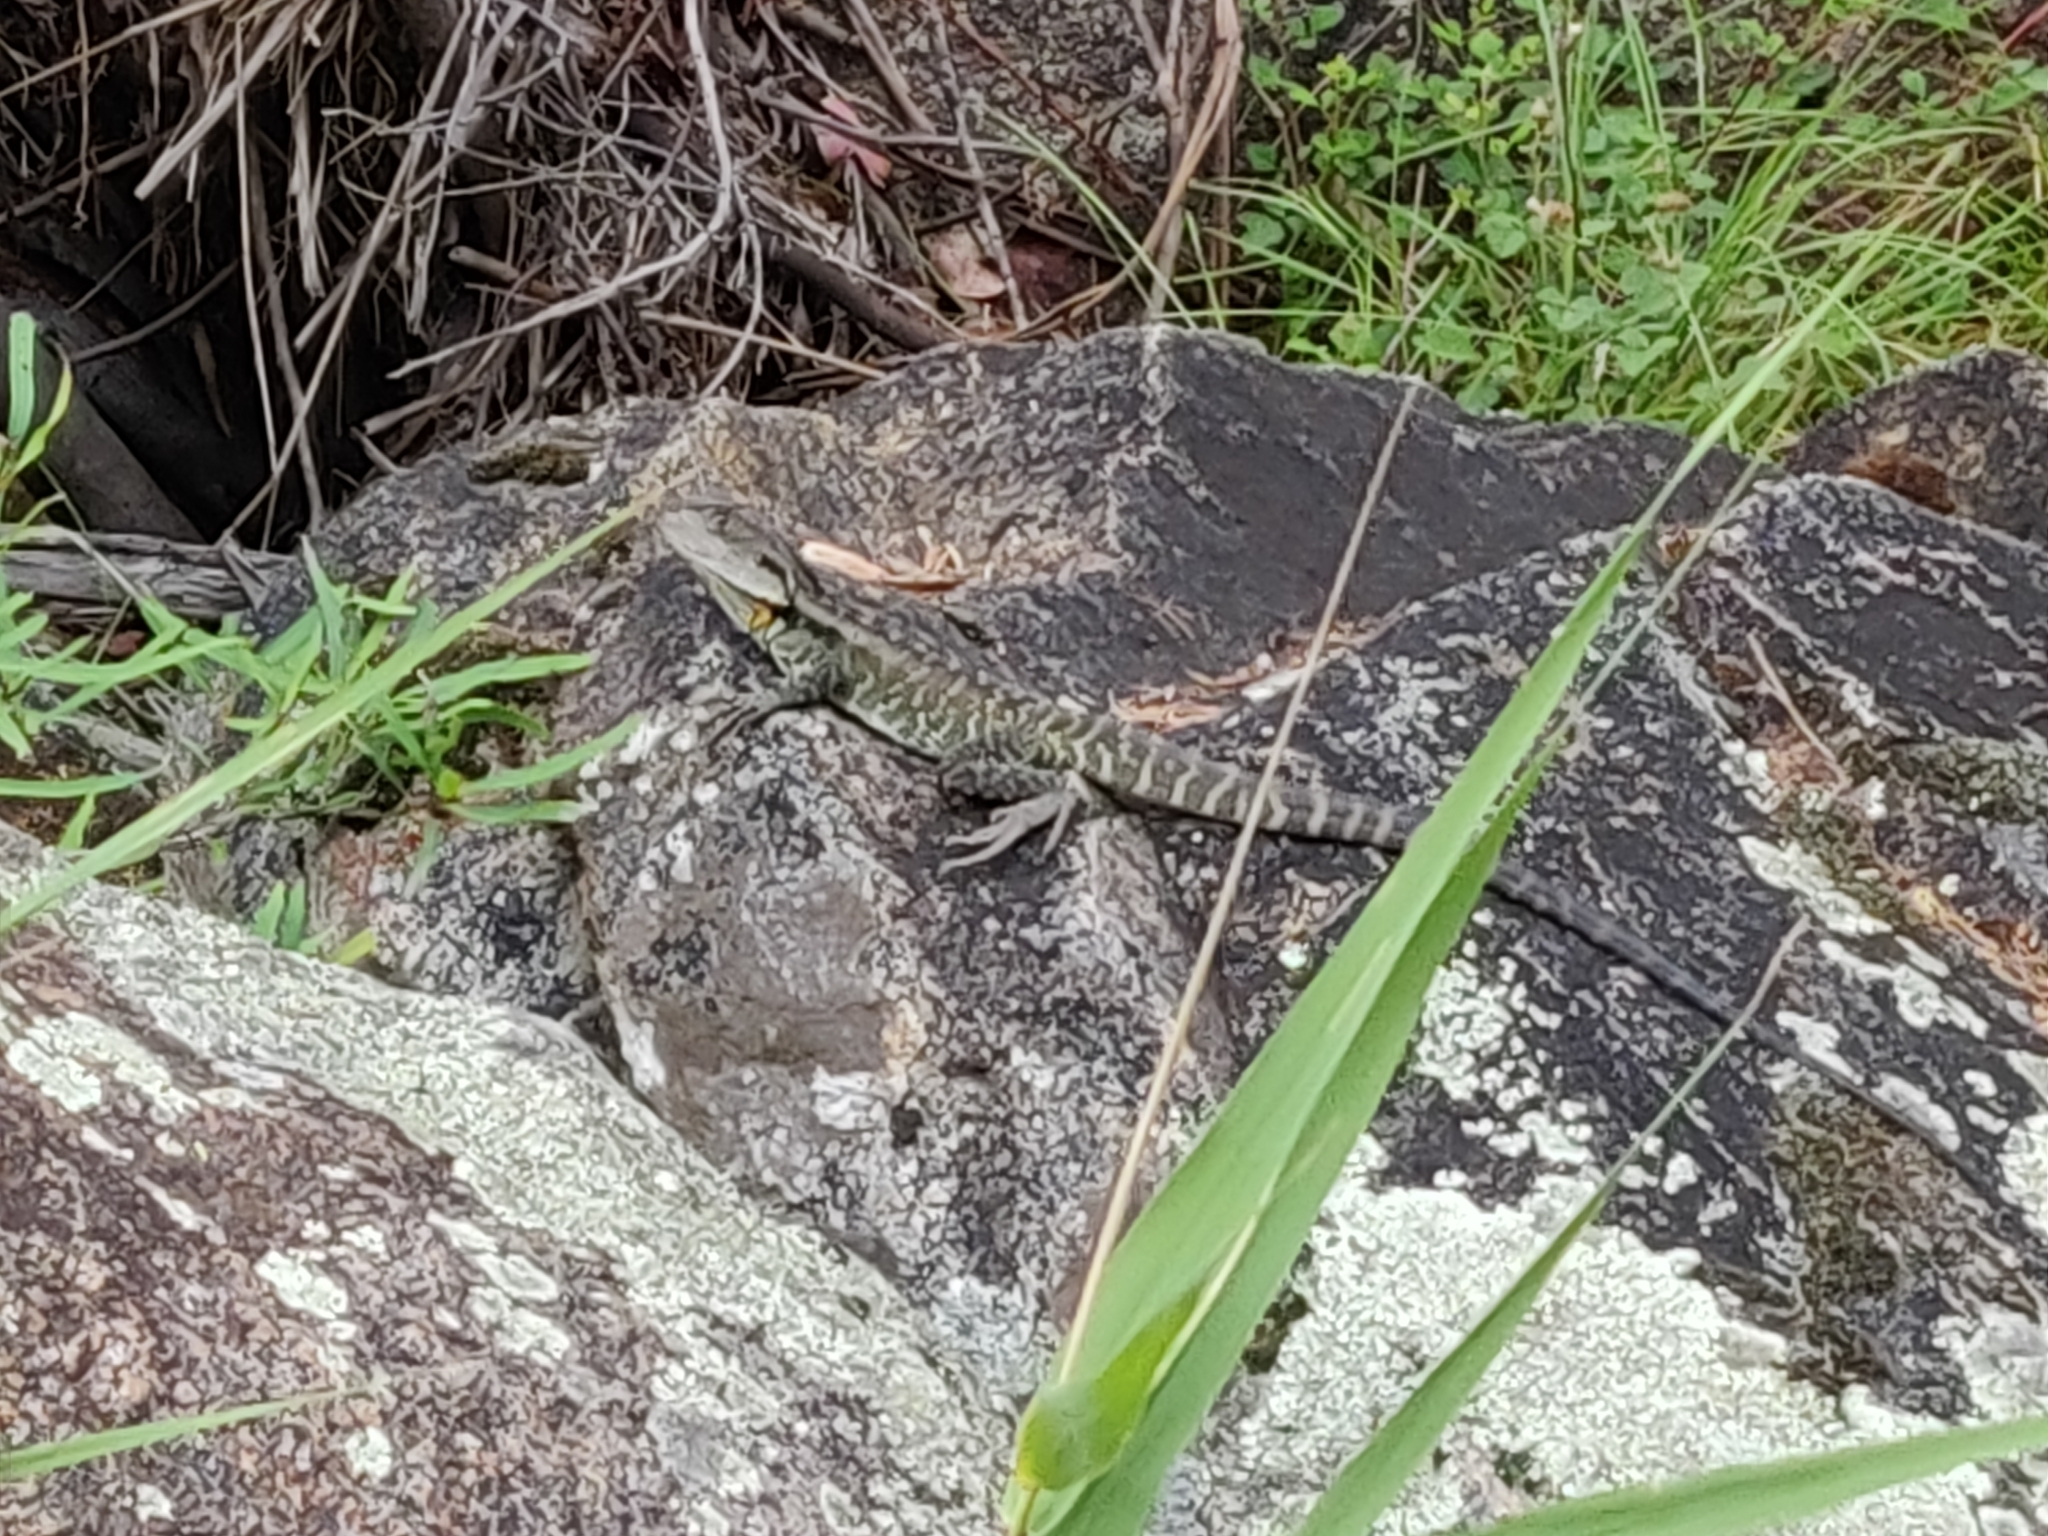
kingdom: Animalia
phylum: Chordata
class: Squamata
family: Agamidae
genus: Intellagama
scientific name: Intellagama lesueurii
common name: Eastern water dragon
